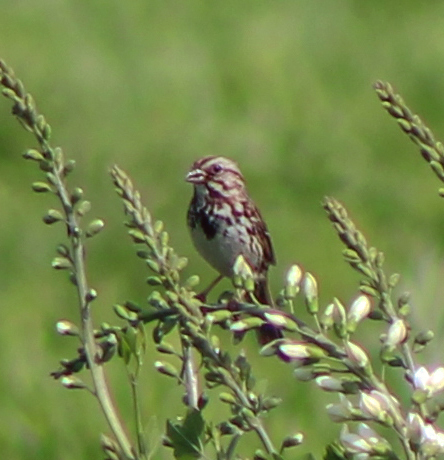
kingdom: Animalia
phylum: Chordata
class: Aves
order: Passeriformes
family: Passerellidae
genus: Melospiza
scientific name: Melospiza melodia
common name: Song sparrow
